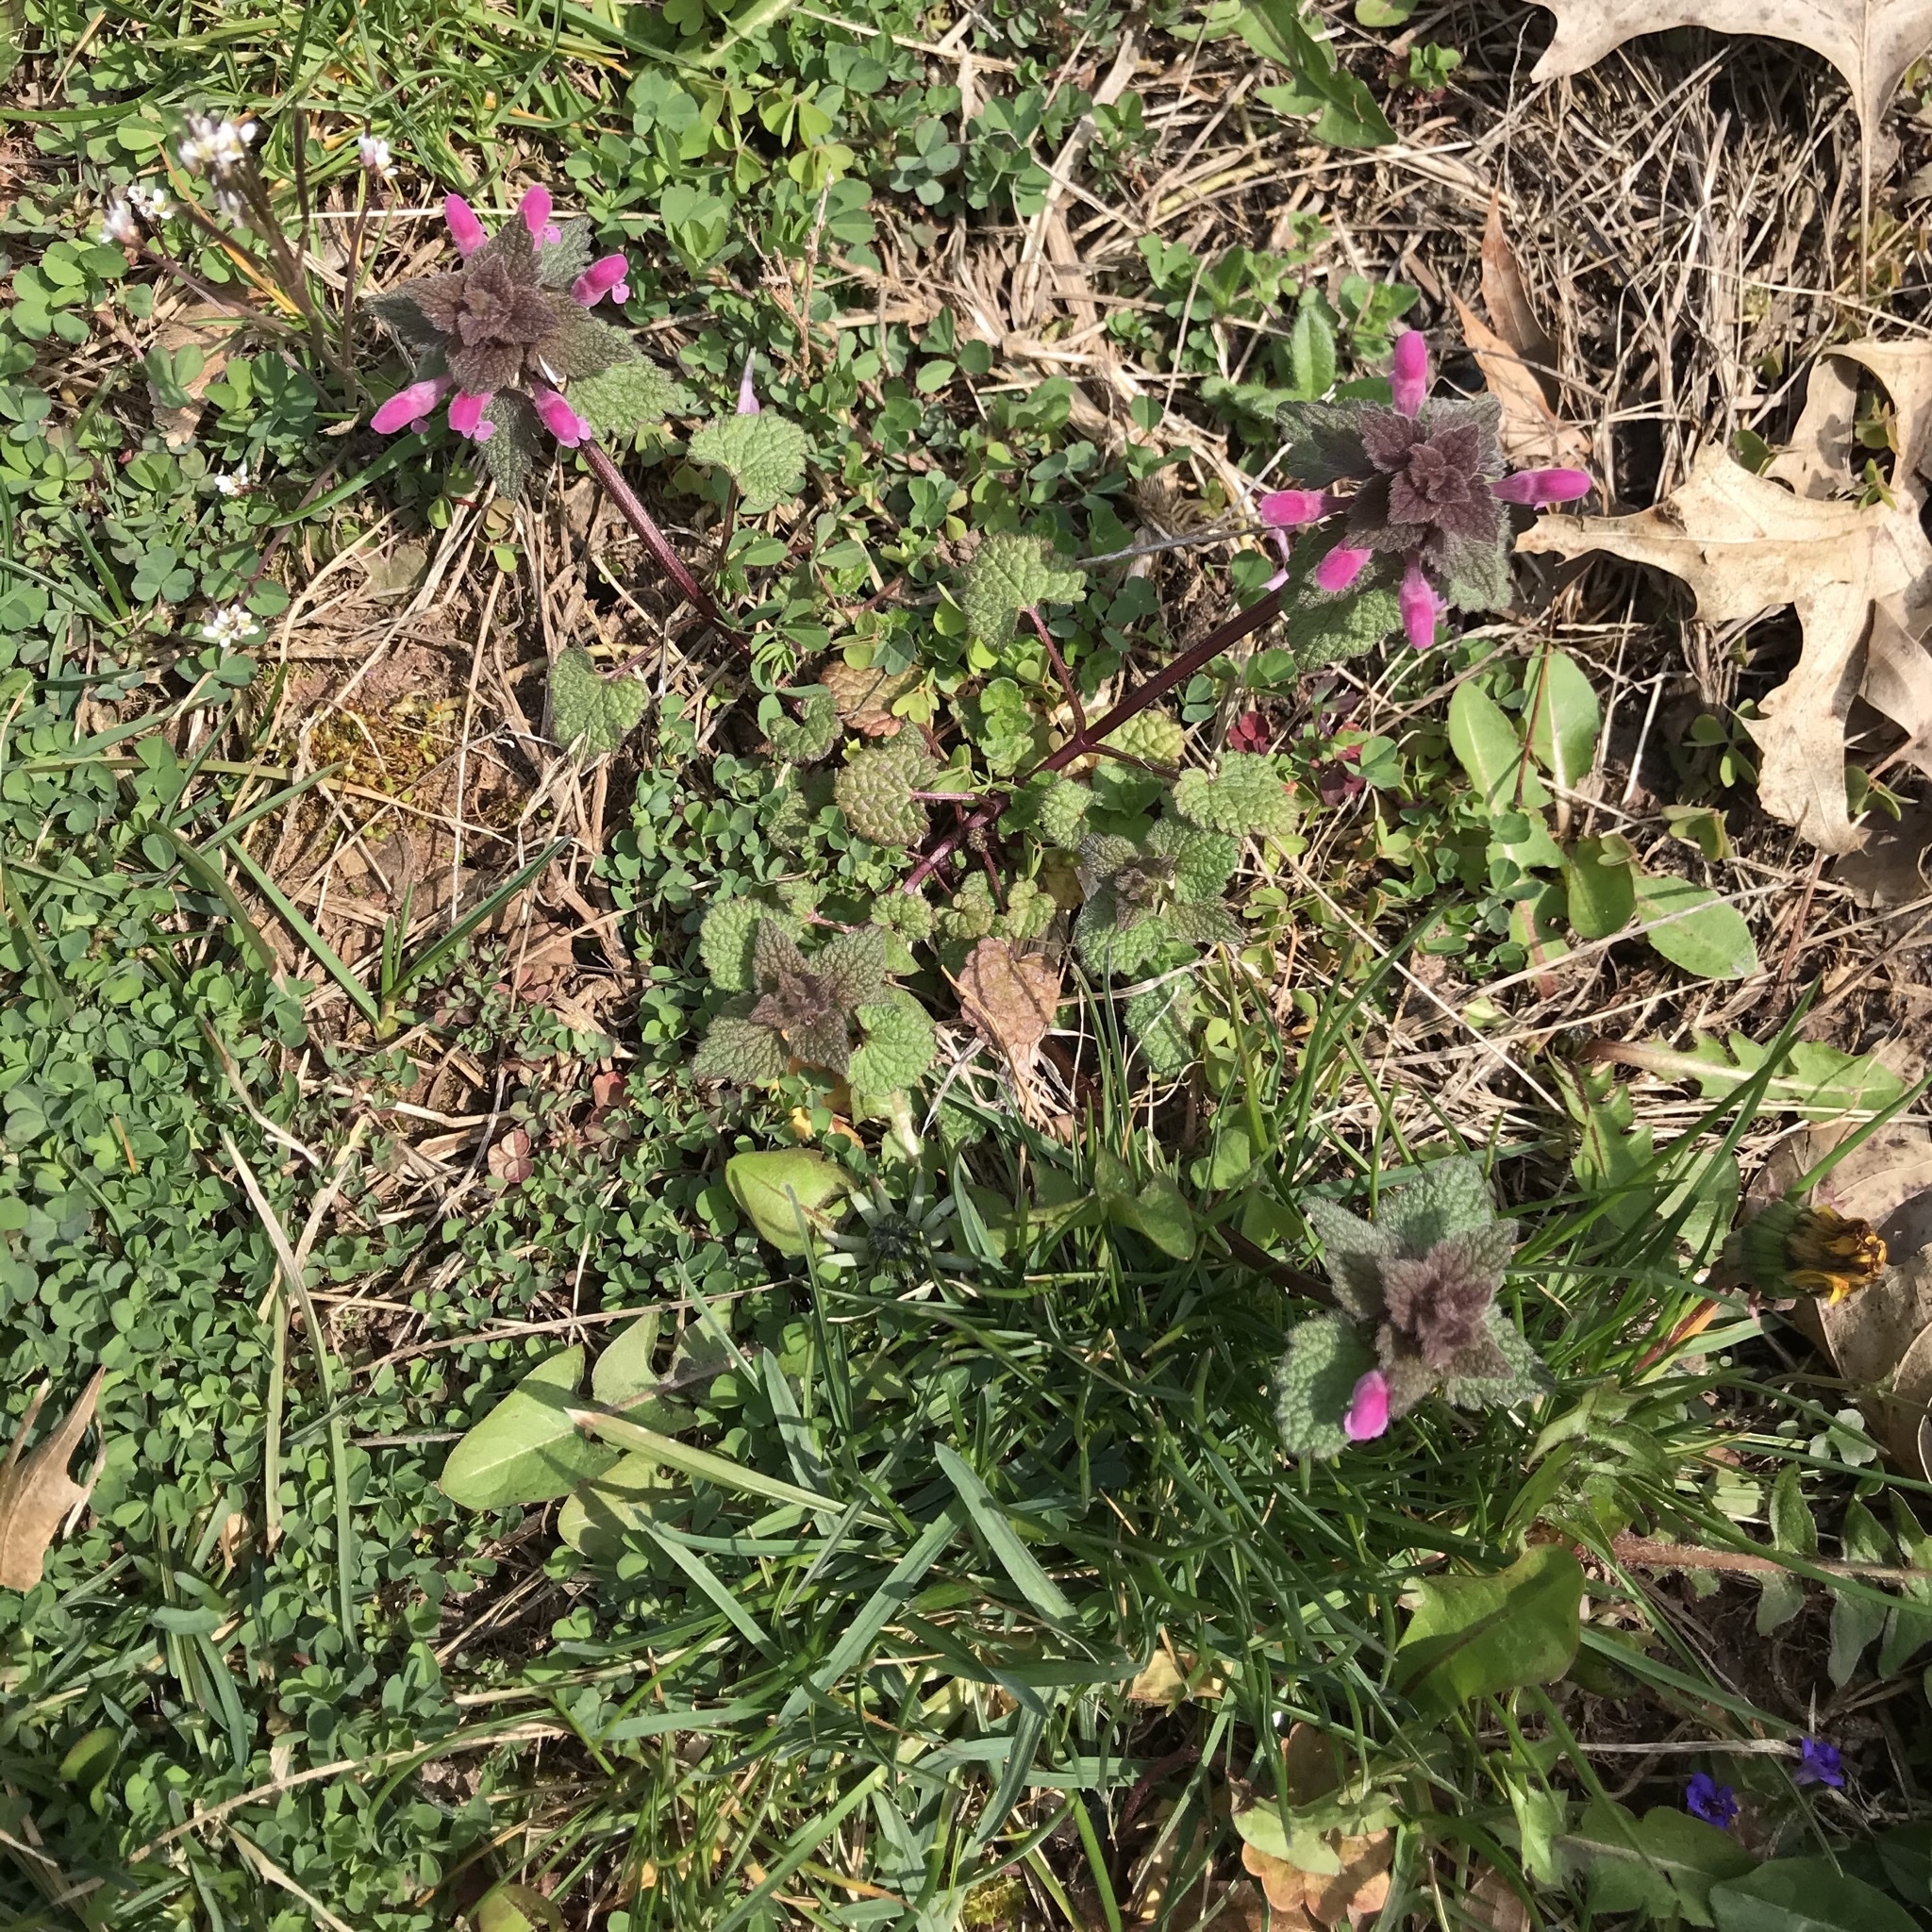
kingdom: Plantae
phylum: Tracheophyta
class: Magnoliopsida
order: Lamiales
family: Lamiaceae
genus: Lamium
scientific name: Lamium purpureum
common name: Red dead-nettle
